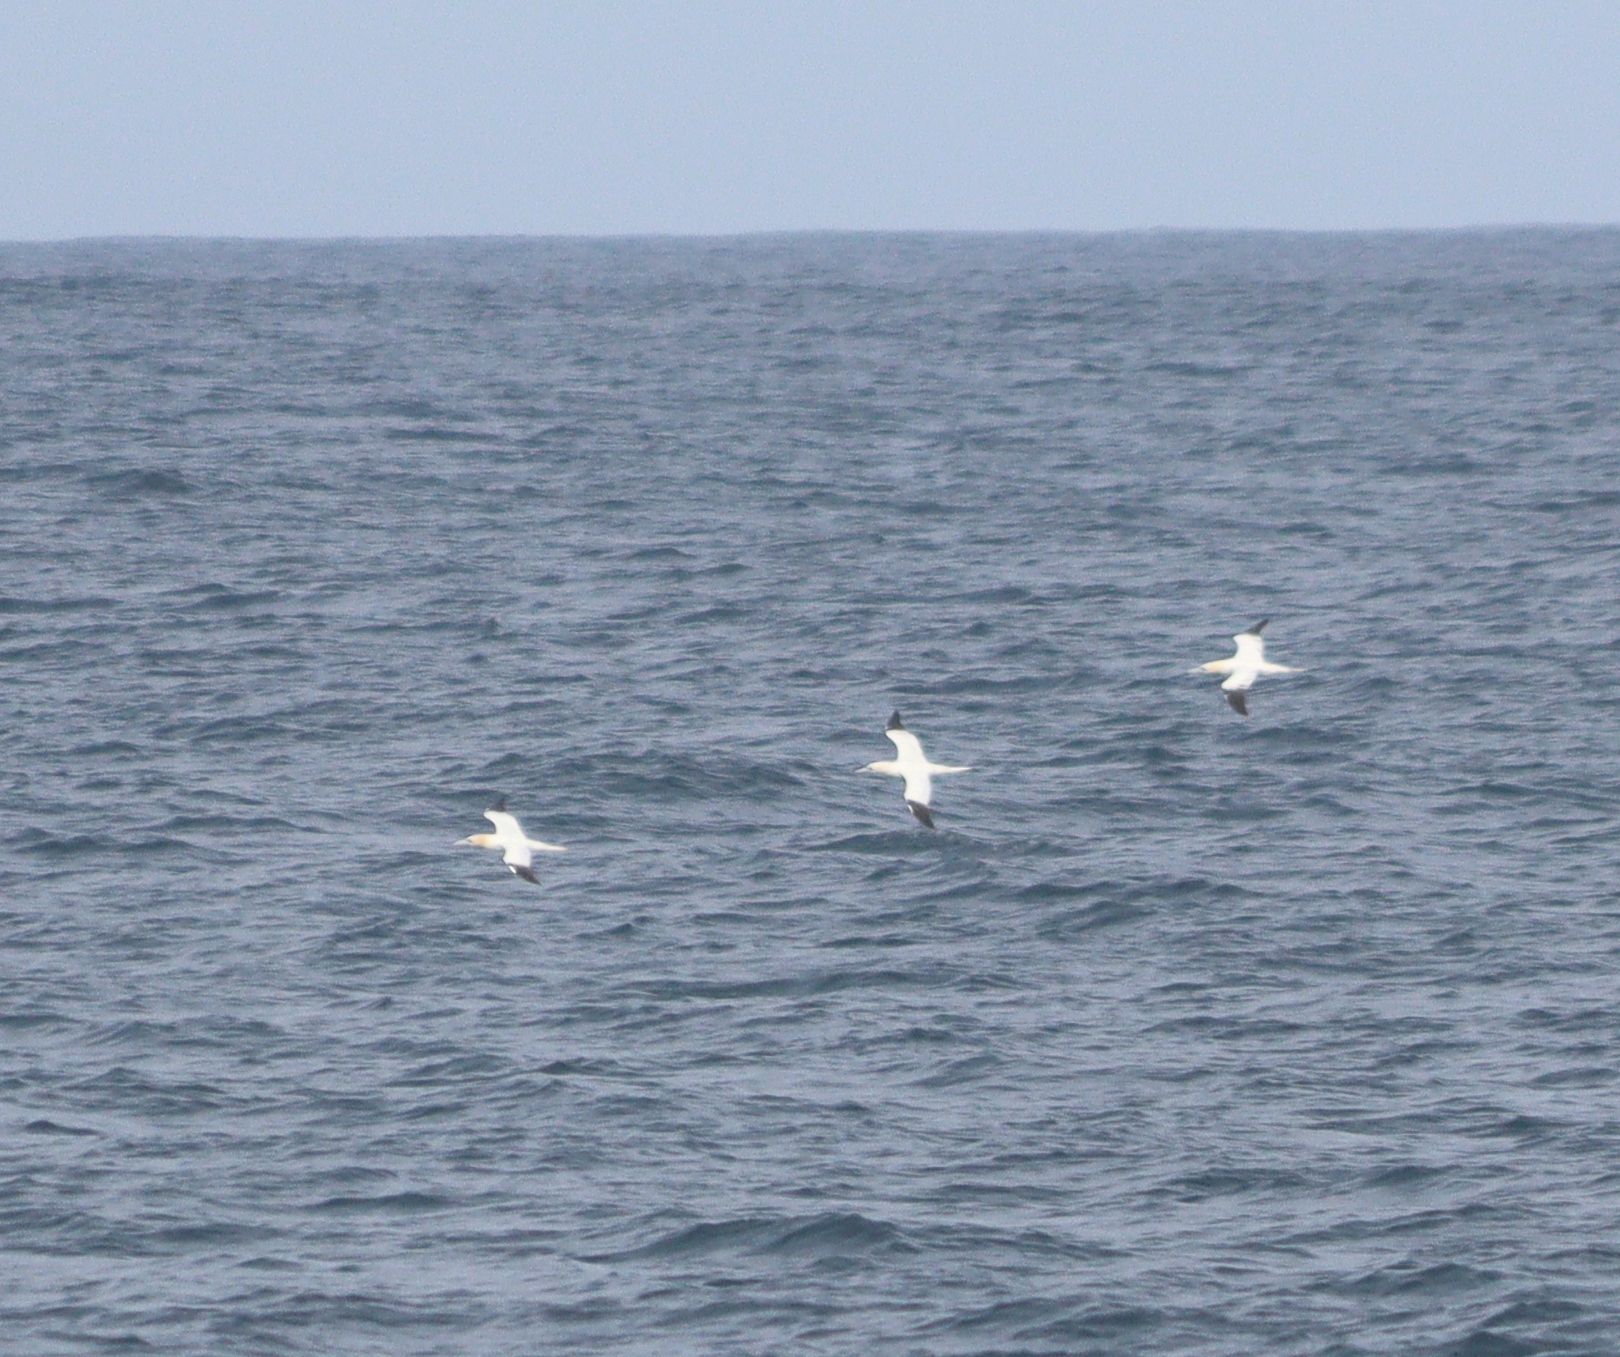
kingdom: Animalia
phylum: Chordata
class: Aves
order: Suliformes
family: Sulidae
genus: Morus
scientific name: Morus bassanus
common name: Northern gannet
